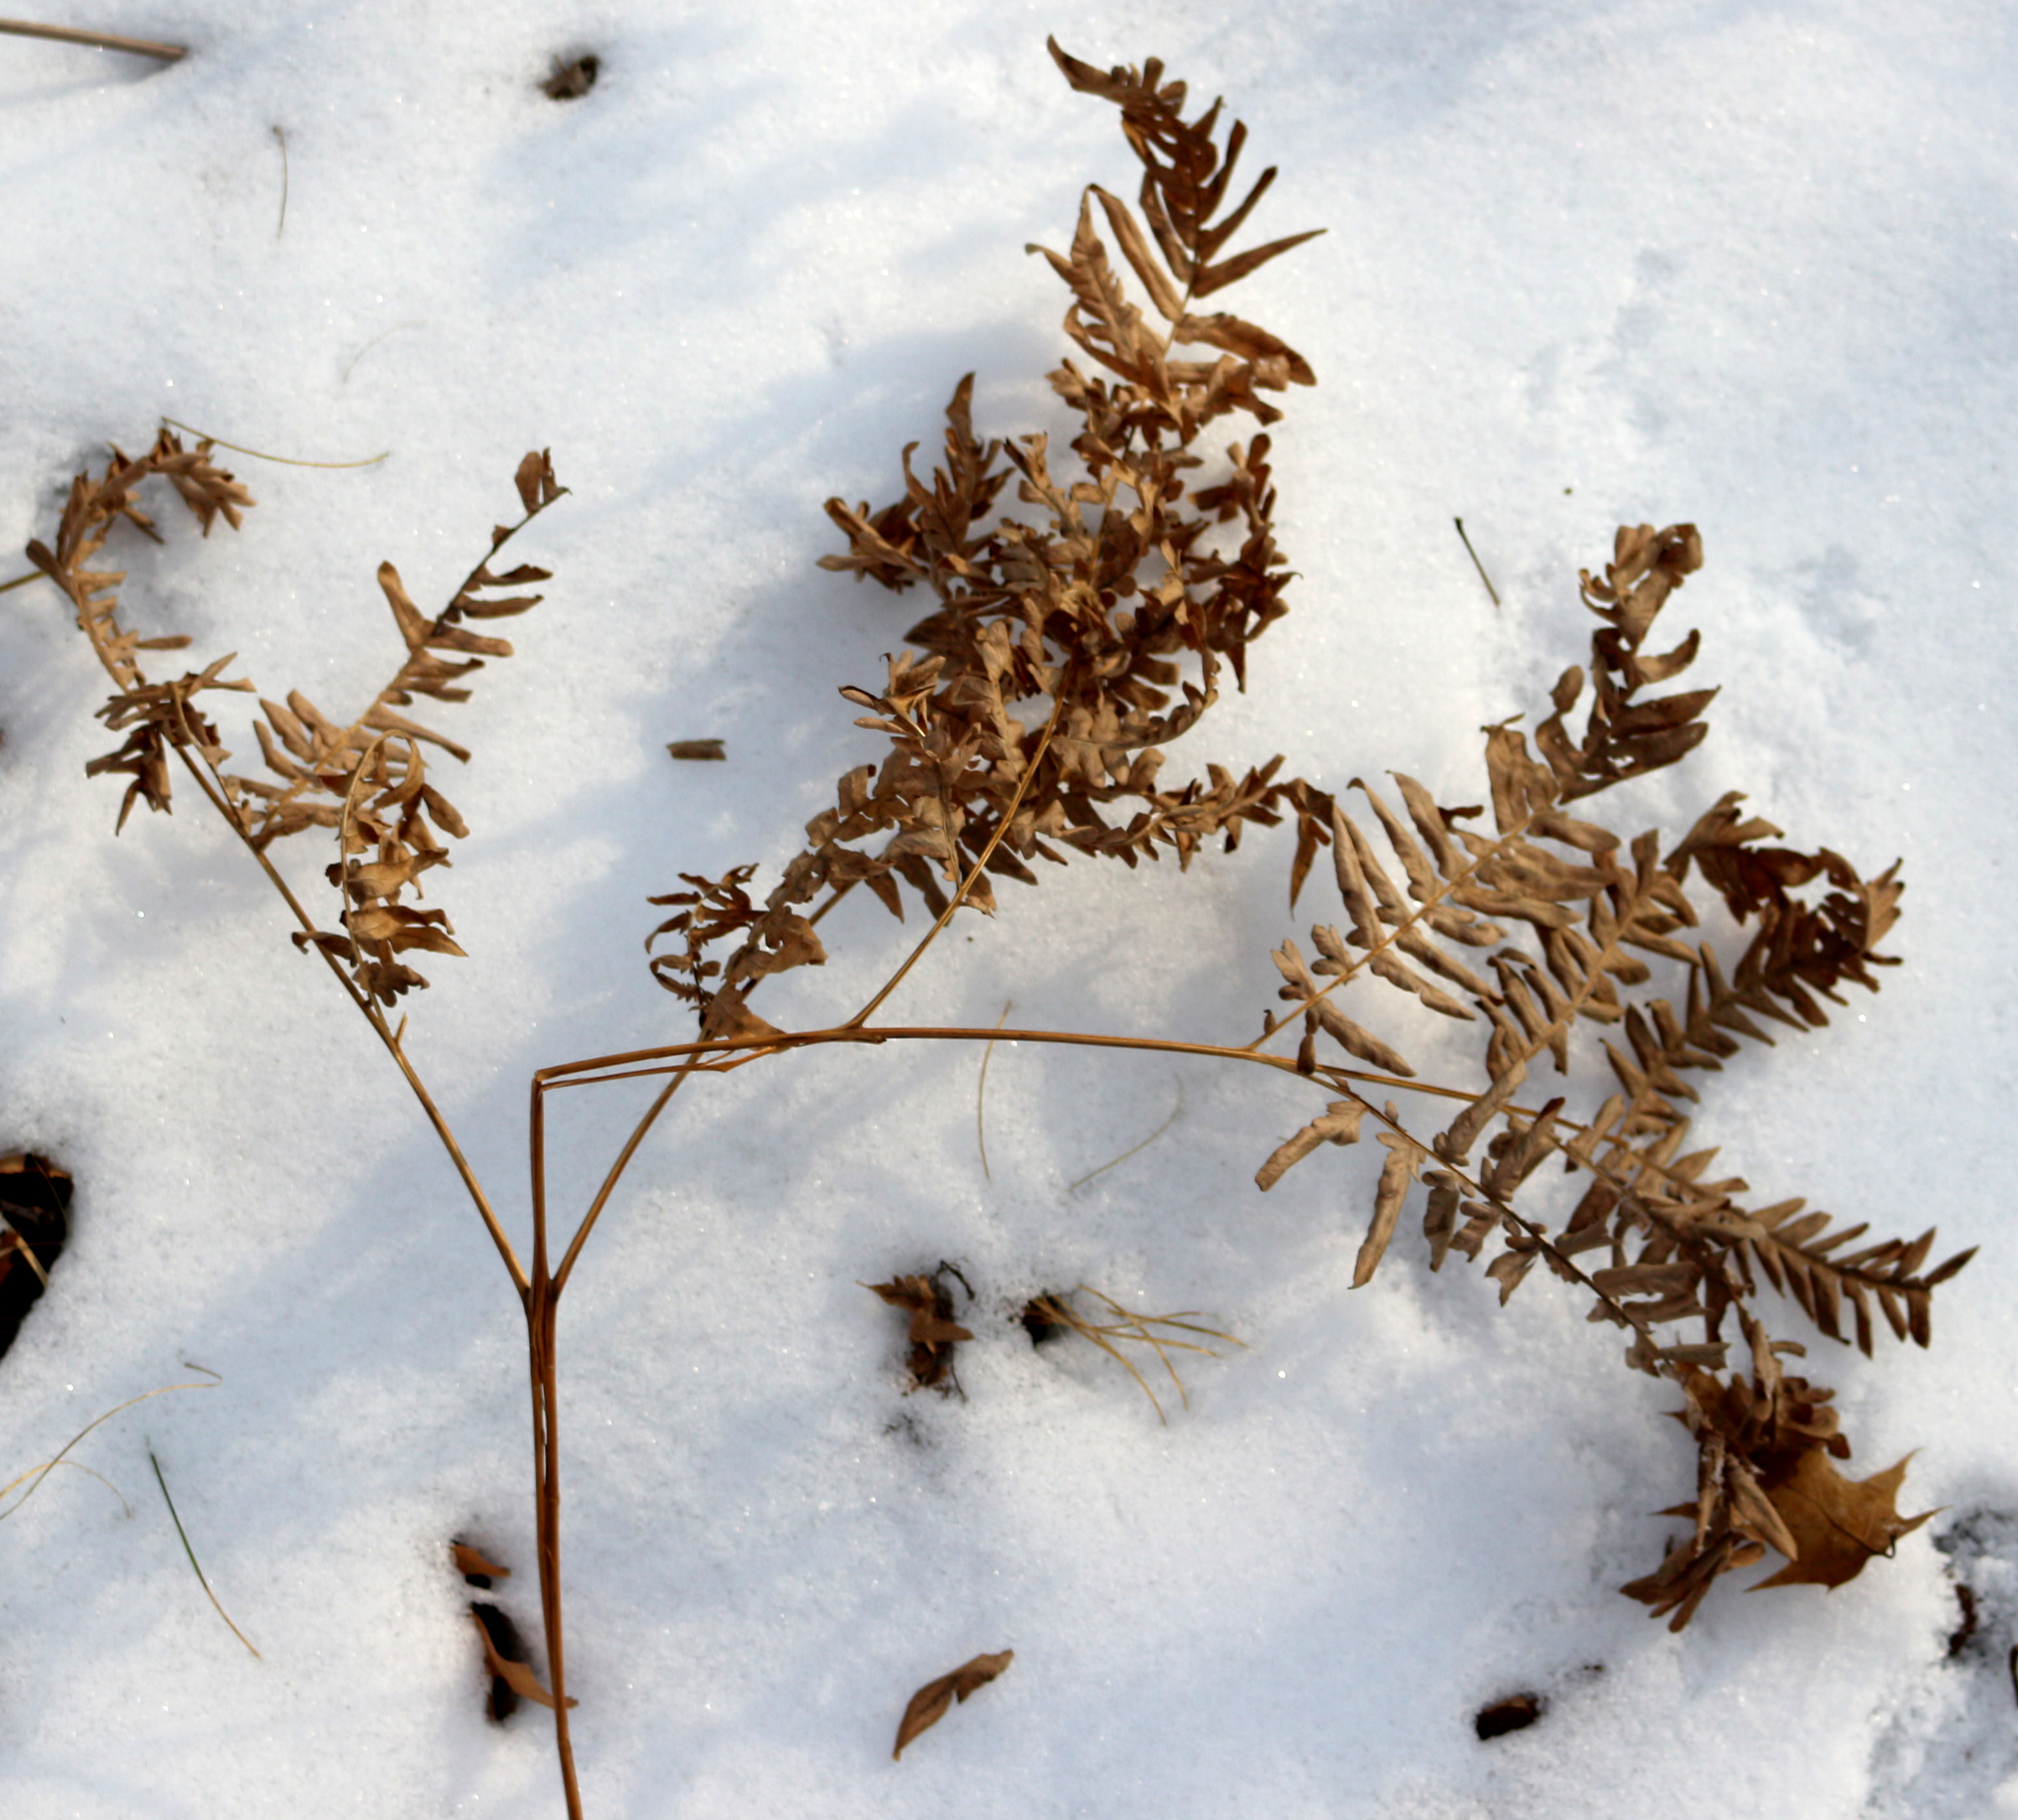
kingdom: Plantae
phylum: Tracheophyta
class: Polypodiopsida
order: Polypodiales
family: Dennstaedtiaceae
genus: Pteridium
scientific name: Pteridium aquilinum
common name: Bracken
